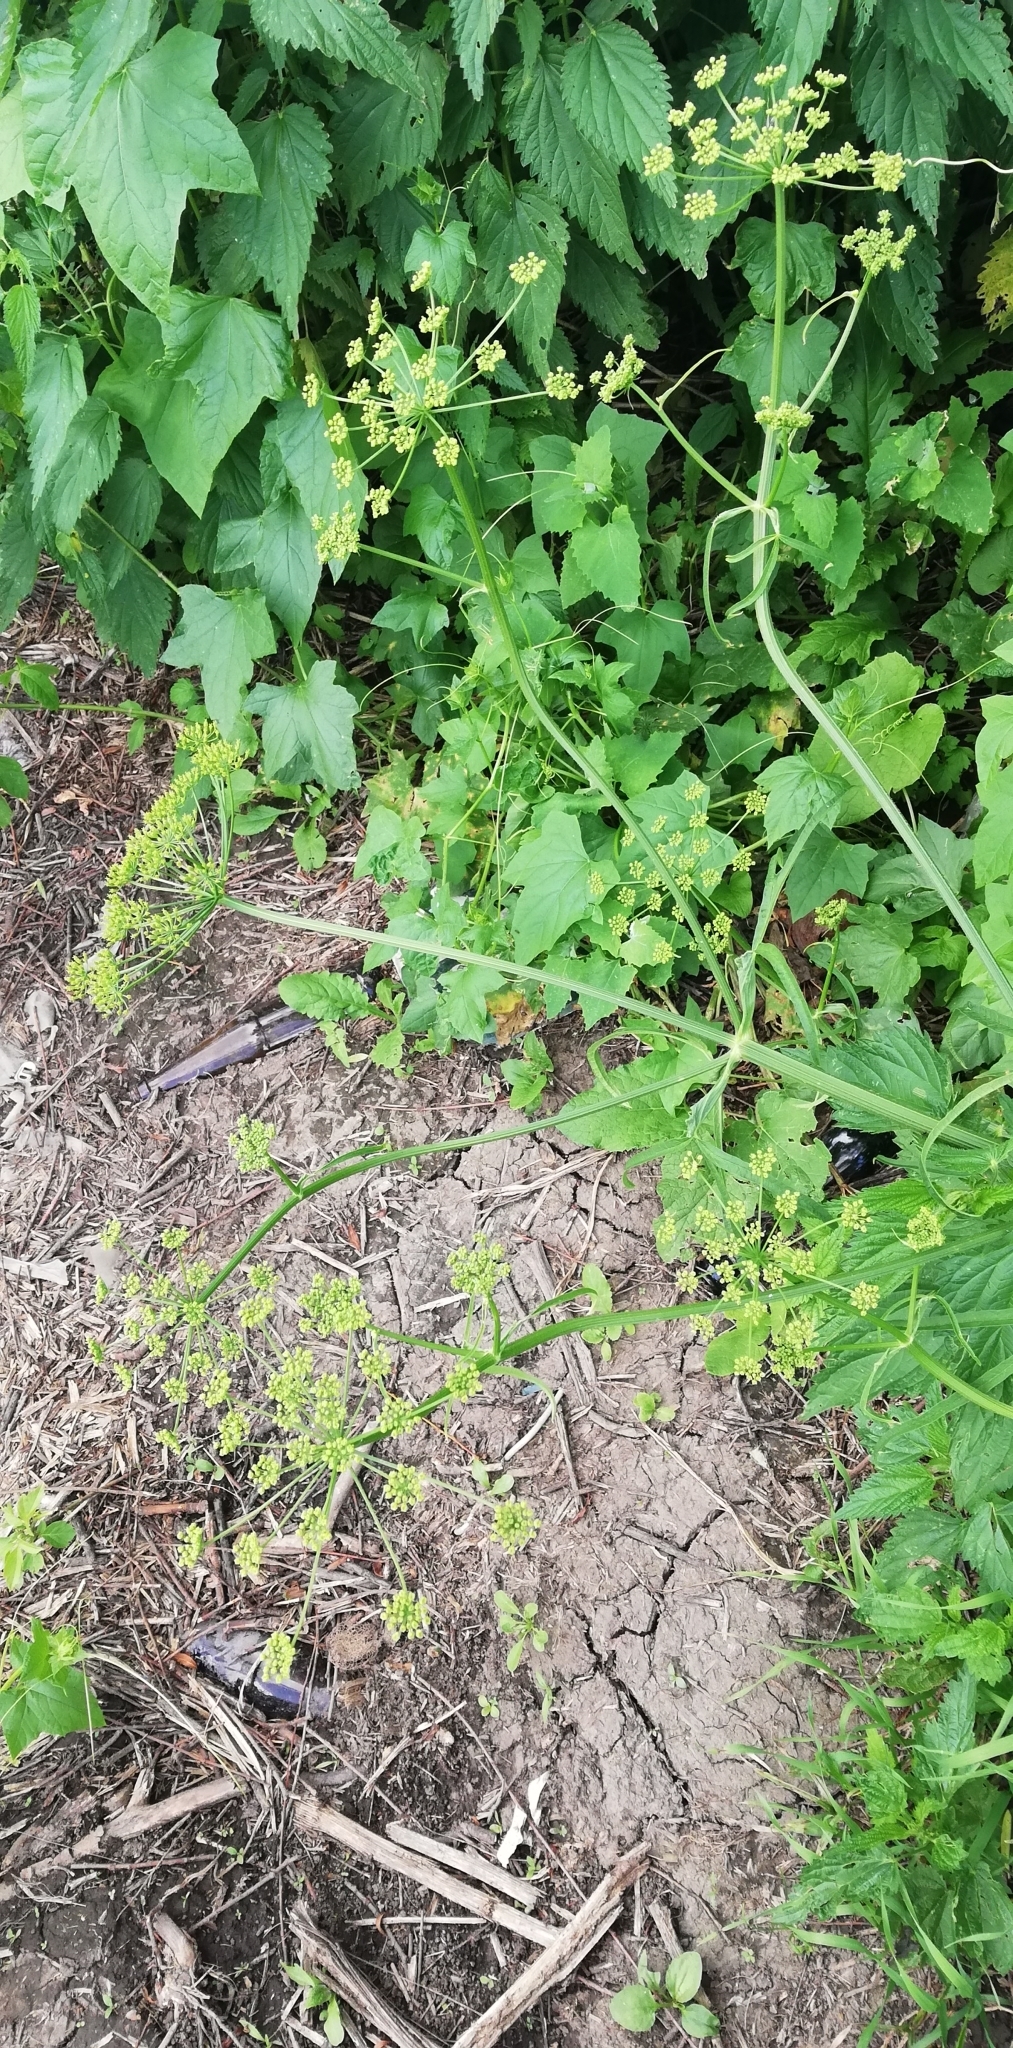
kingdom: Plantae
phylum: Tracheophyta
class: Magnoliopsida
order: Apiales
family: Apiaceae
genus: Heracleum
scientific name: Heracleum sphondylium
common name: Hogweed
